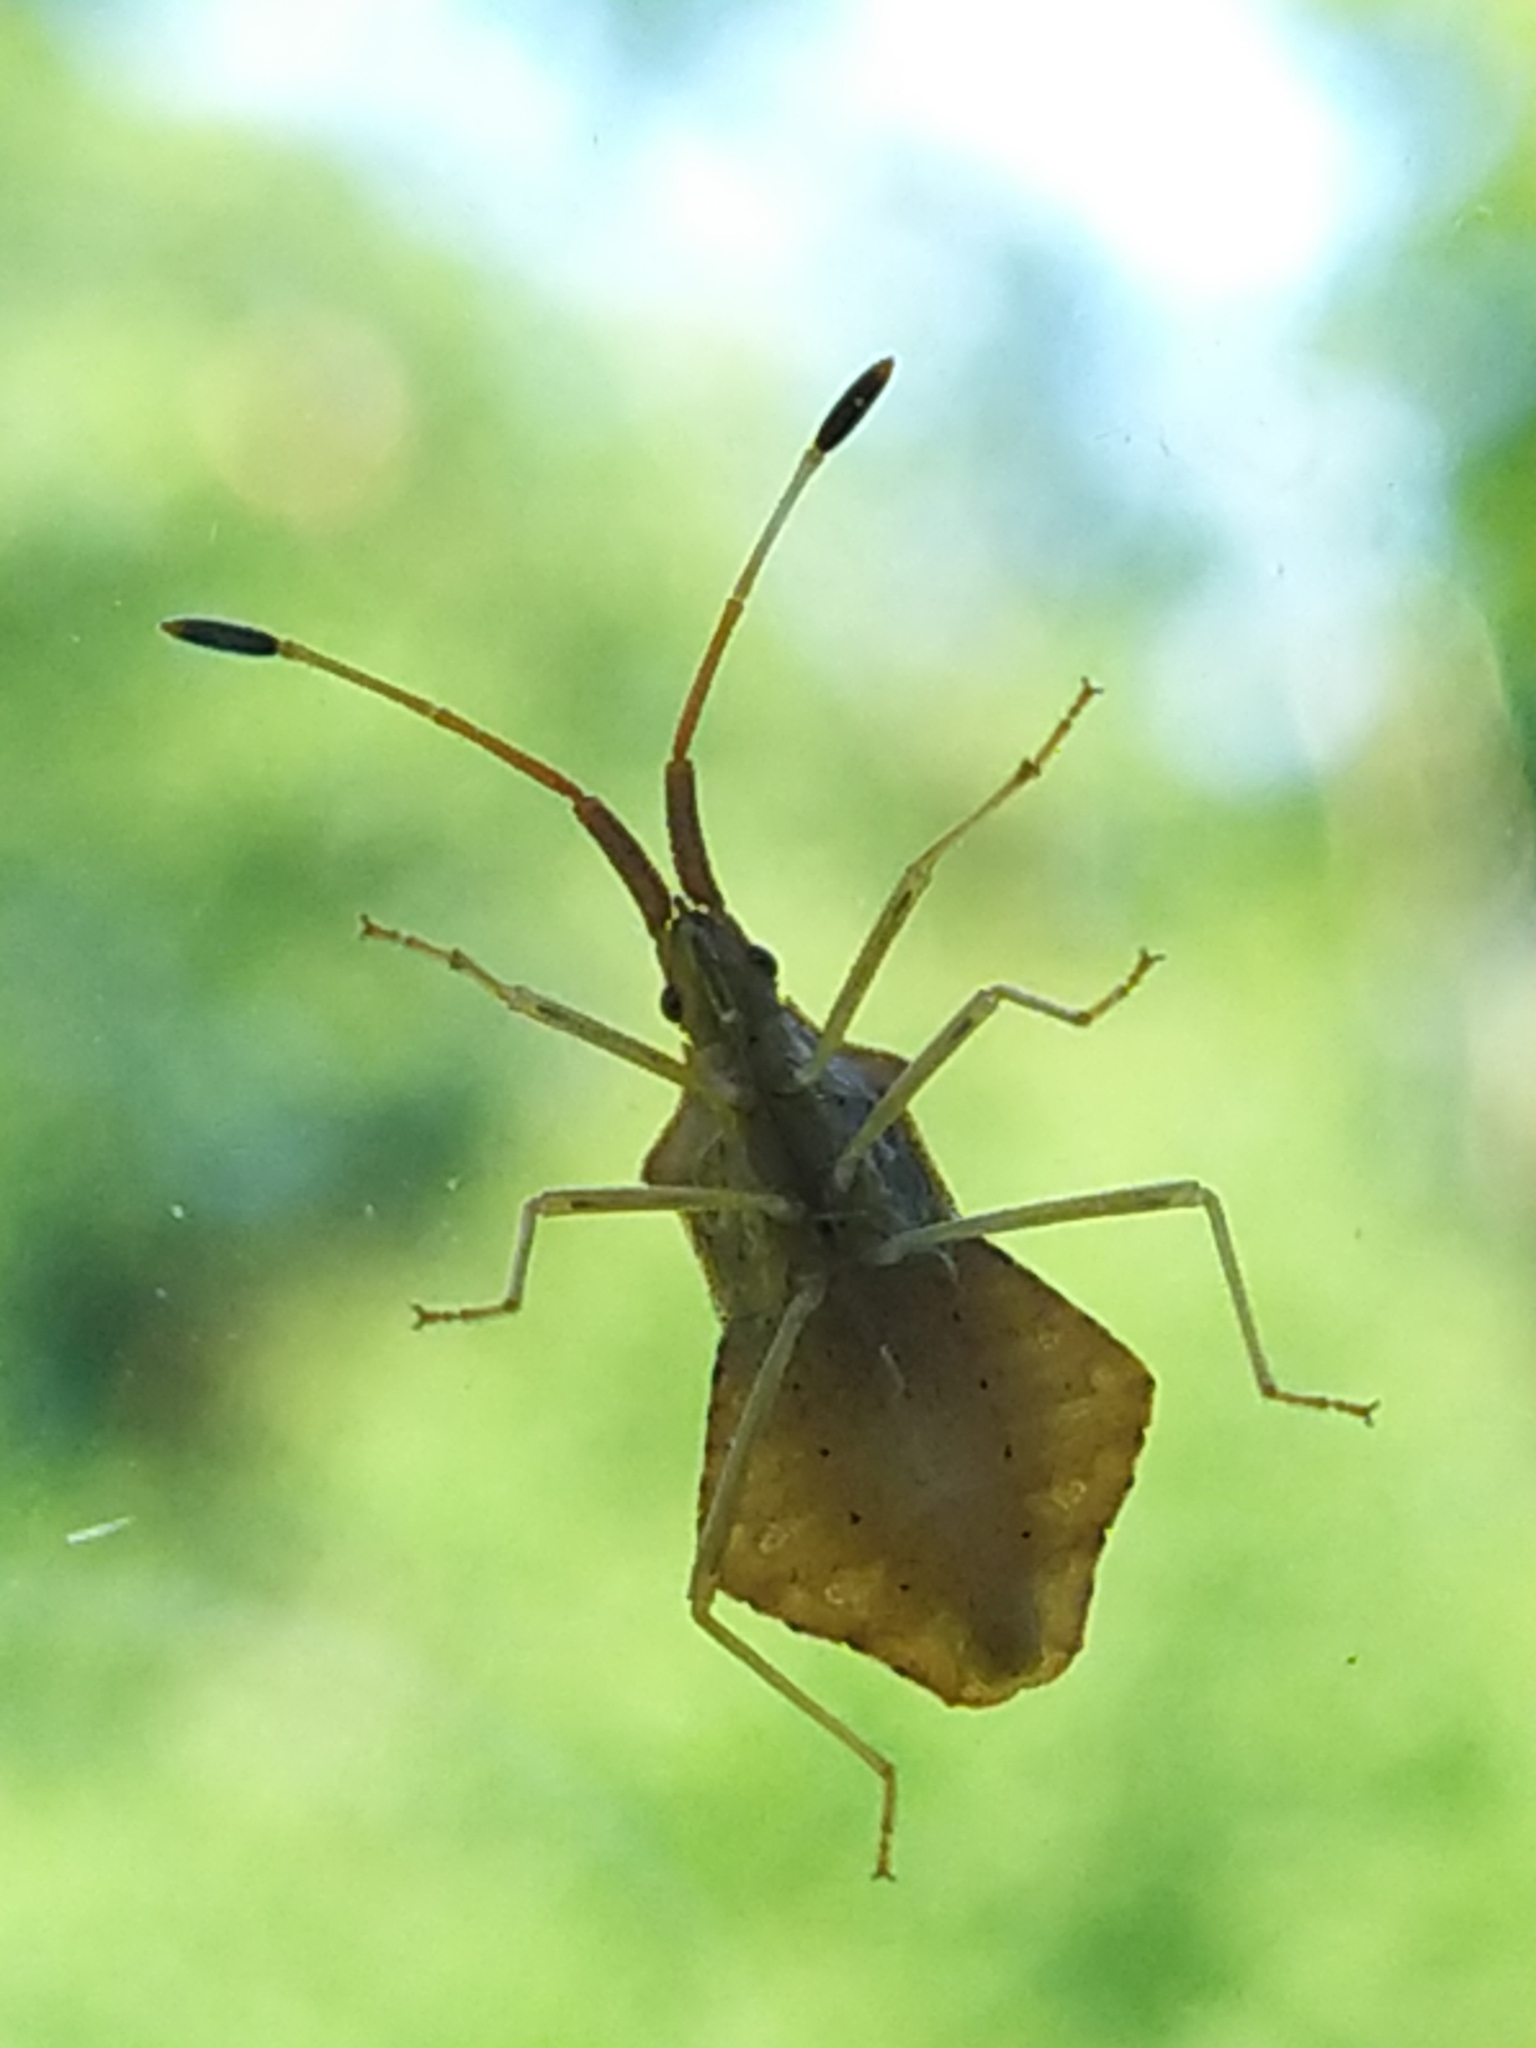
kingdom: Animalia
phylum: Arthropoda
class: Insecta
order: Hemiptera
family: Coreidae
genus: Syromastus
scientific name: Syromastus rhombeus
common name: Rhombic leatherbug
